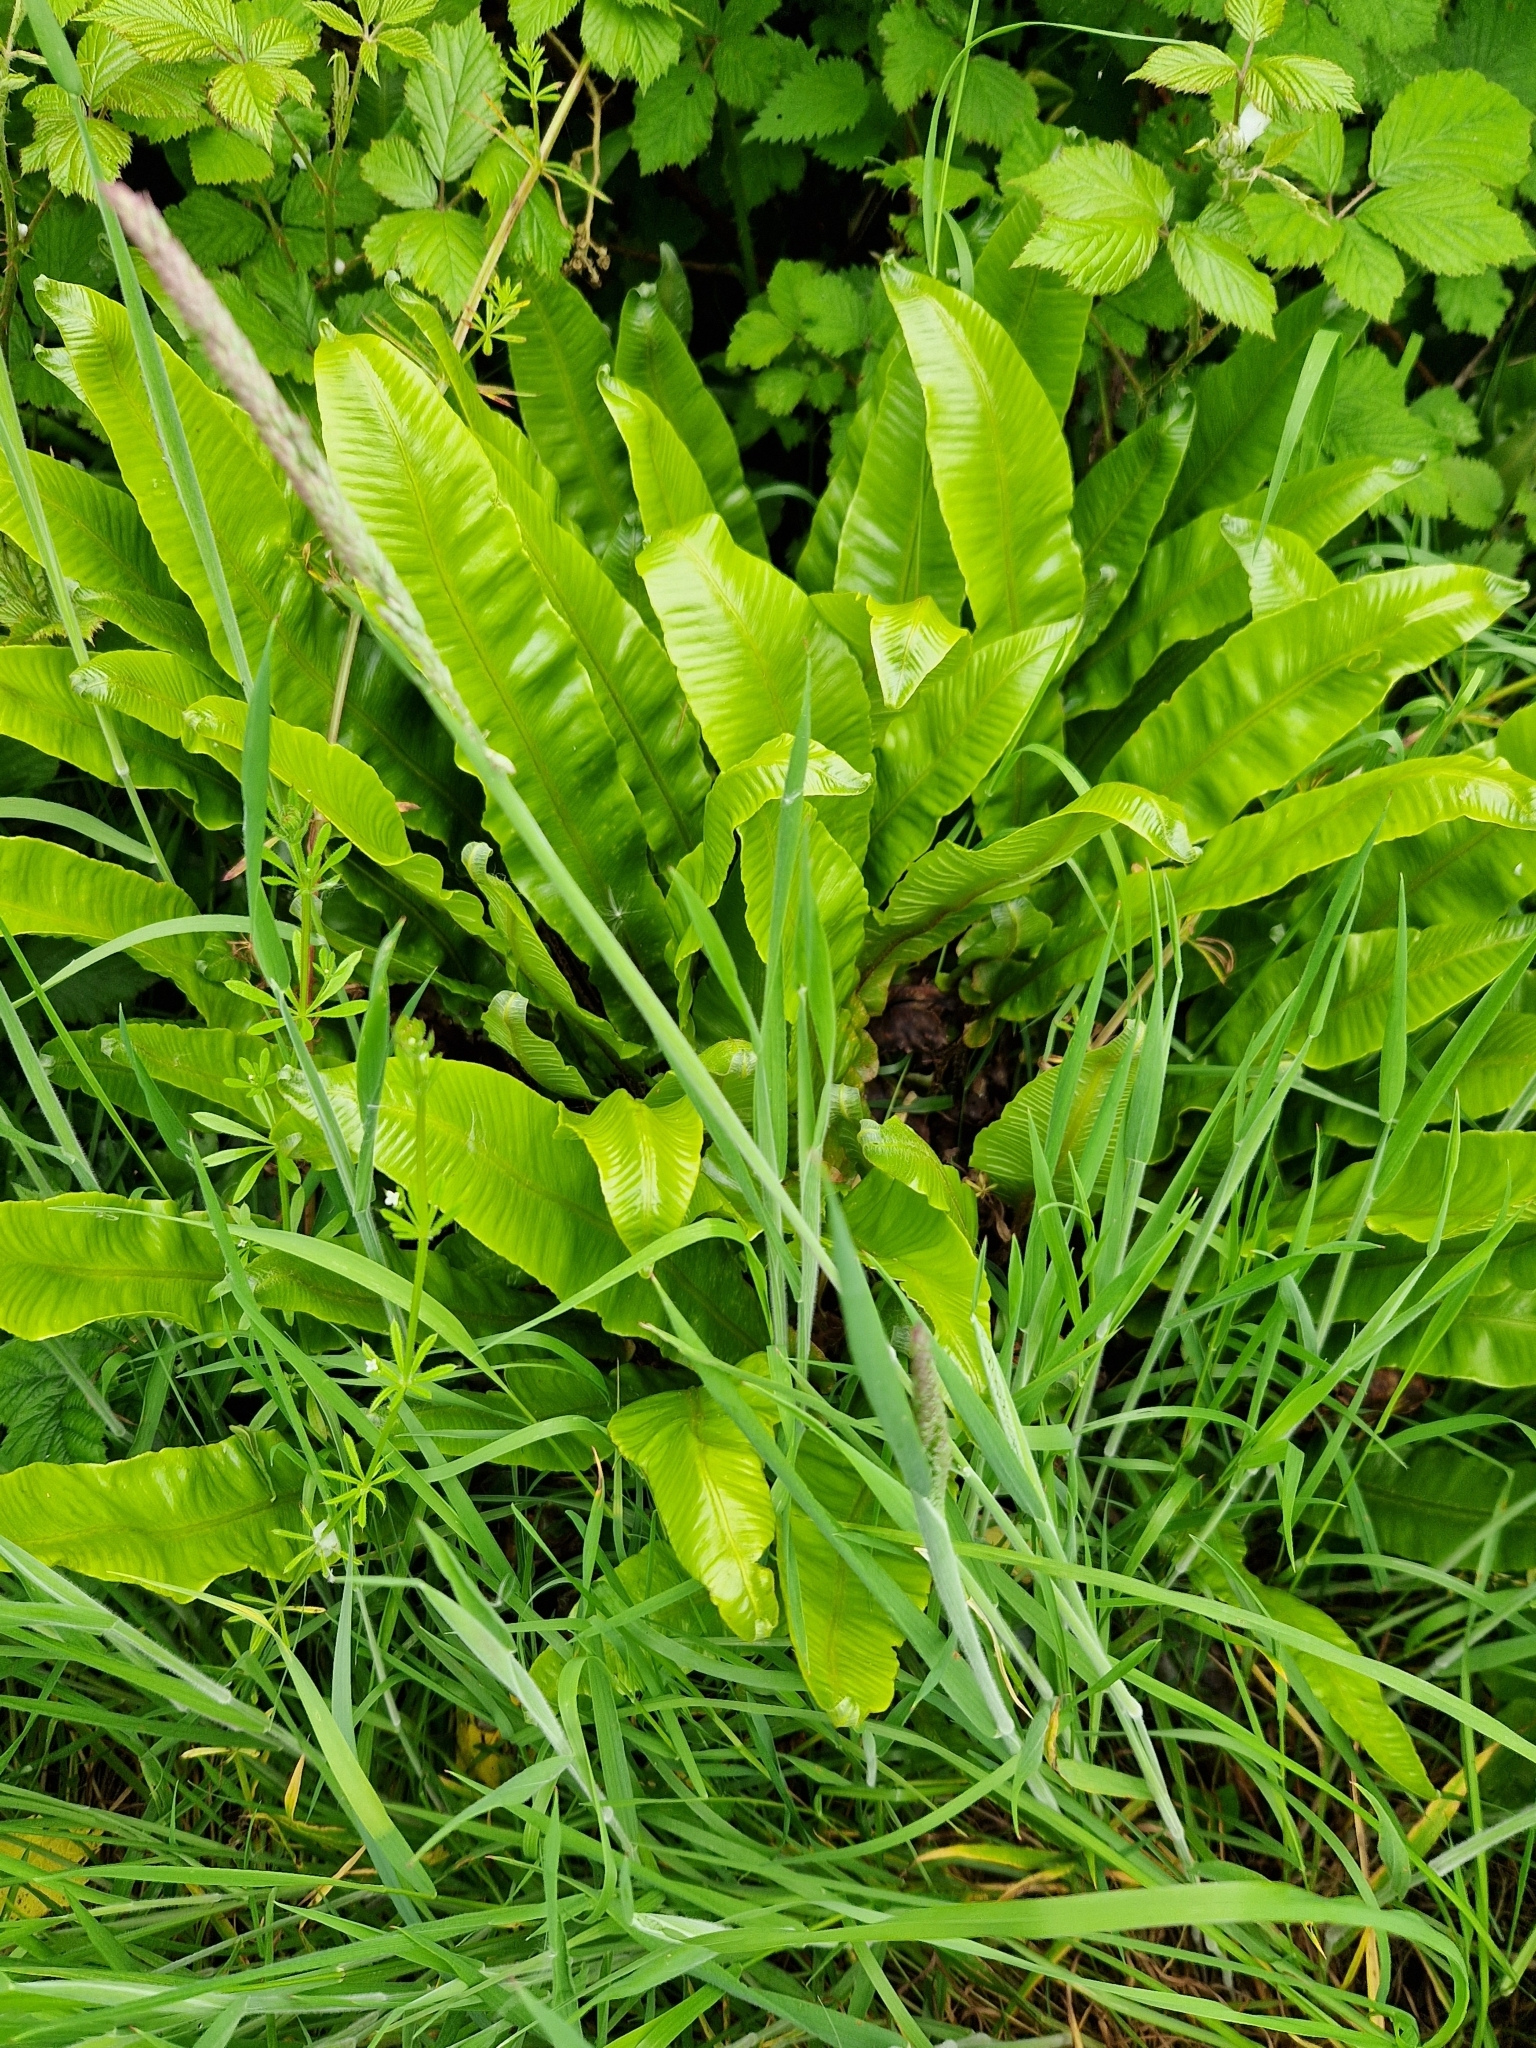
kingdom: Plantae
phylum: Tracheophyta
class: Polypodiopsida
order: Polypodiales
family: Aspleniaceae
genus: Asplenium
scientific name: Asplenium scolopendrium
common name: Hart's-tongue fern
